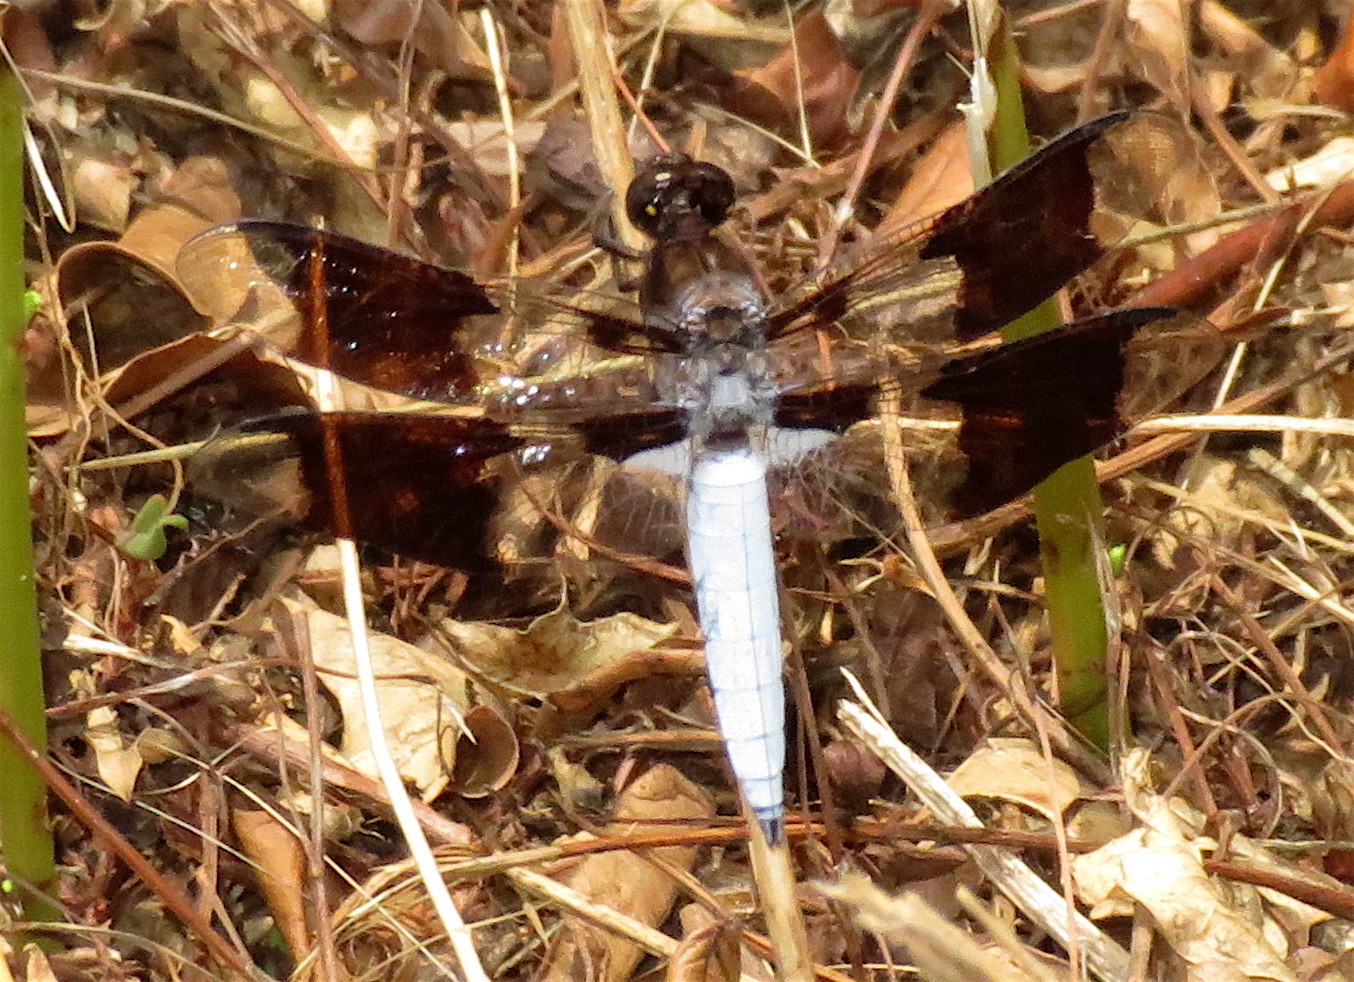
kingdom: Animalia
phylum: Arthropoda
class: Insecta
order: Odonata
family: Libellulidae
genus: Plathemis
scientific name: Plathemis lydia
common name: Common whitetail
